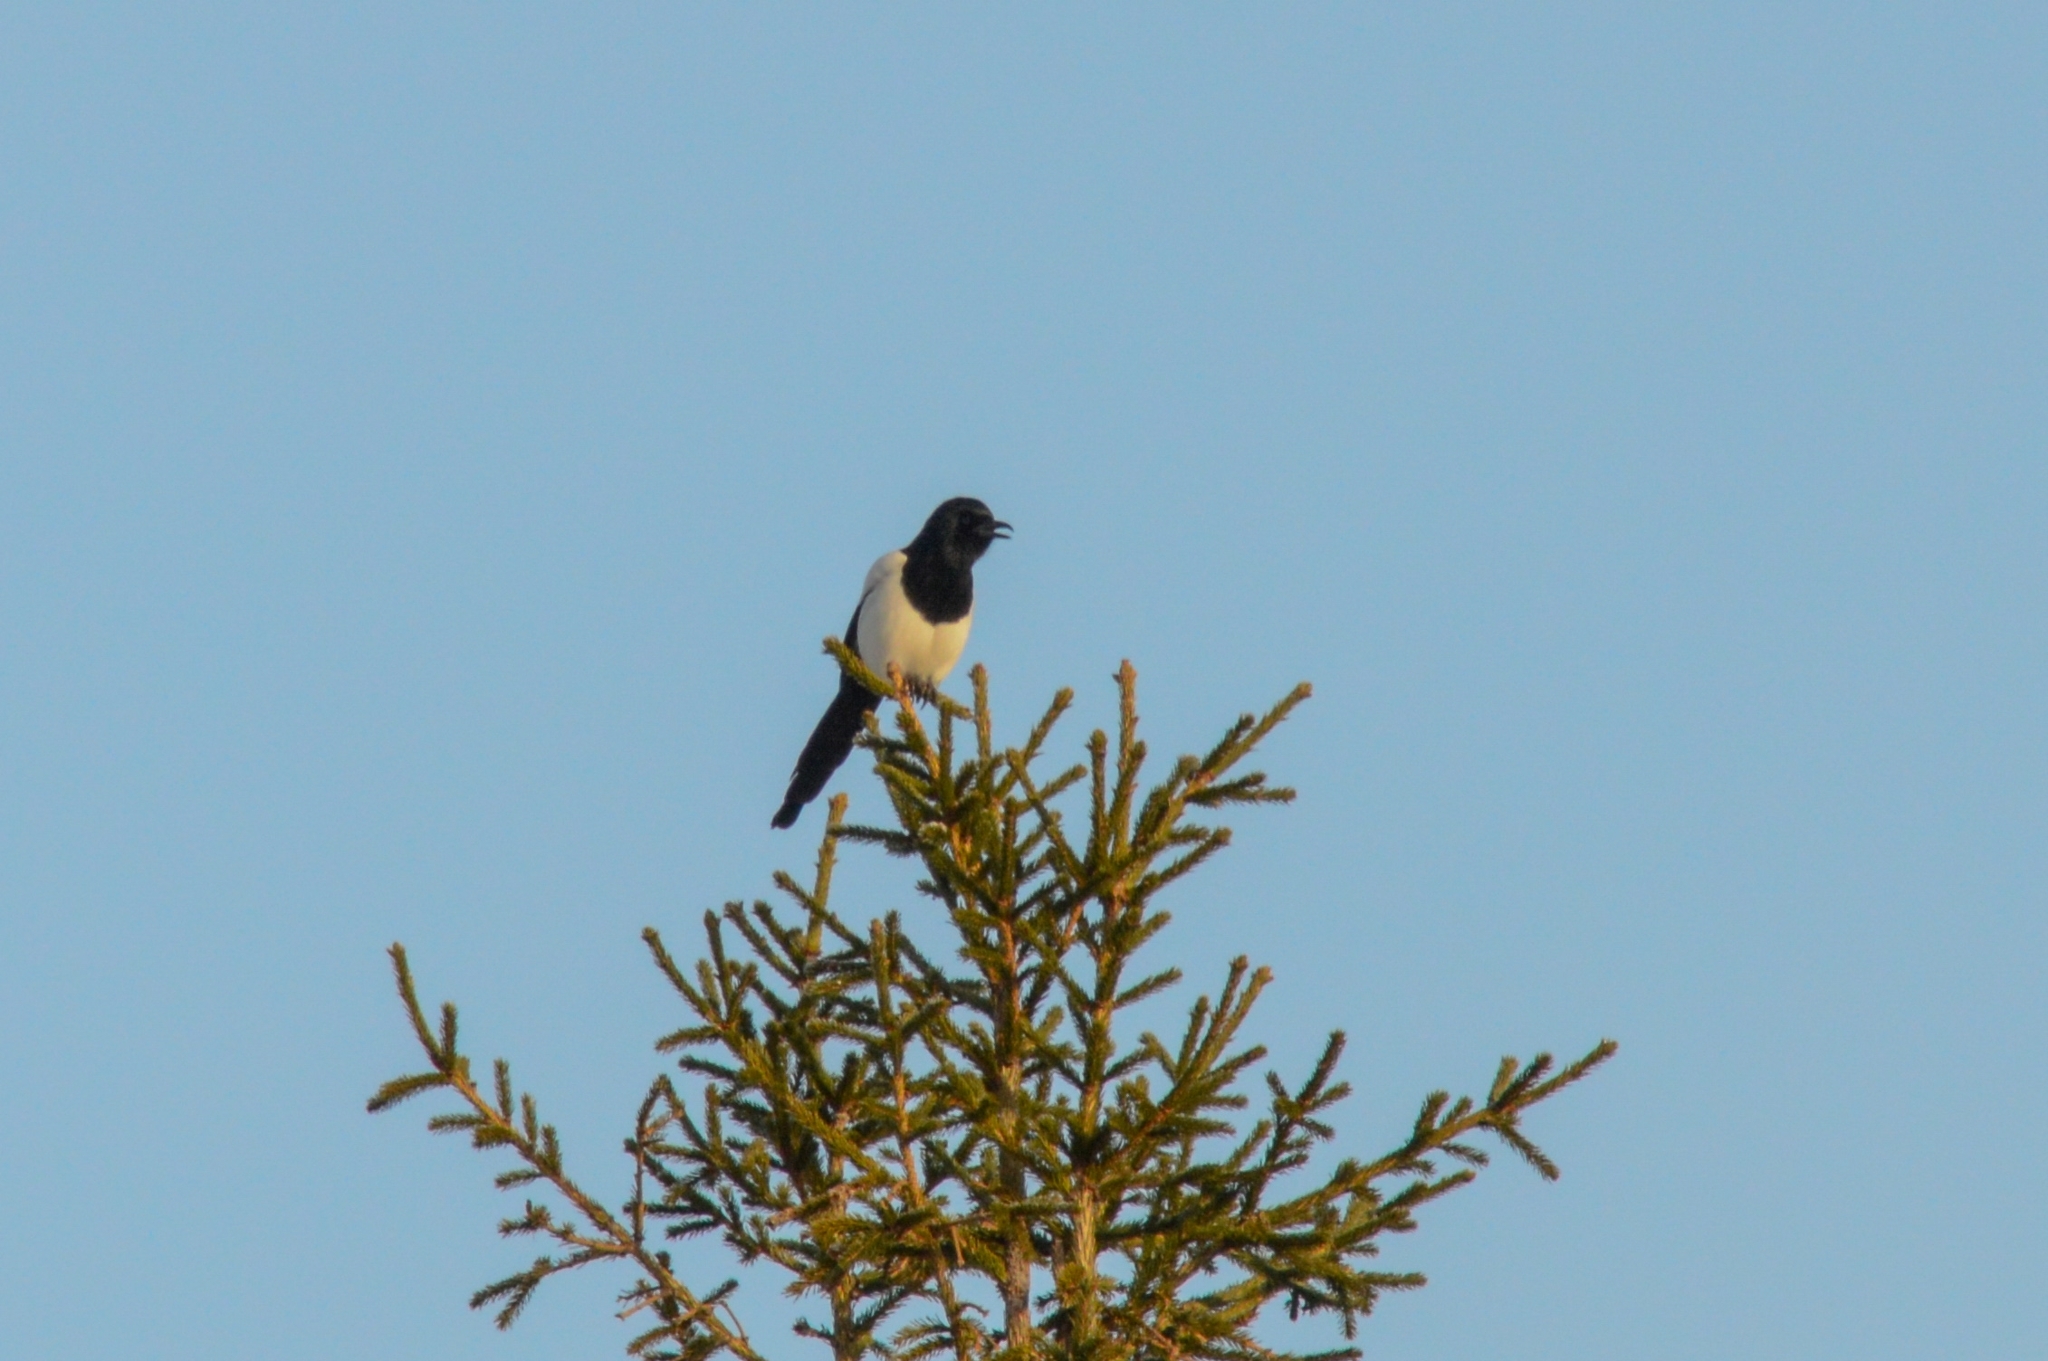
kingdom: Animalia
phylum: Chordata
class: Aves
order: Passeriformes
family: Corvidae
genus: Pica
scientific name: Pica pica
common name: Eurasian magpie
